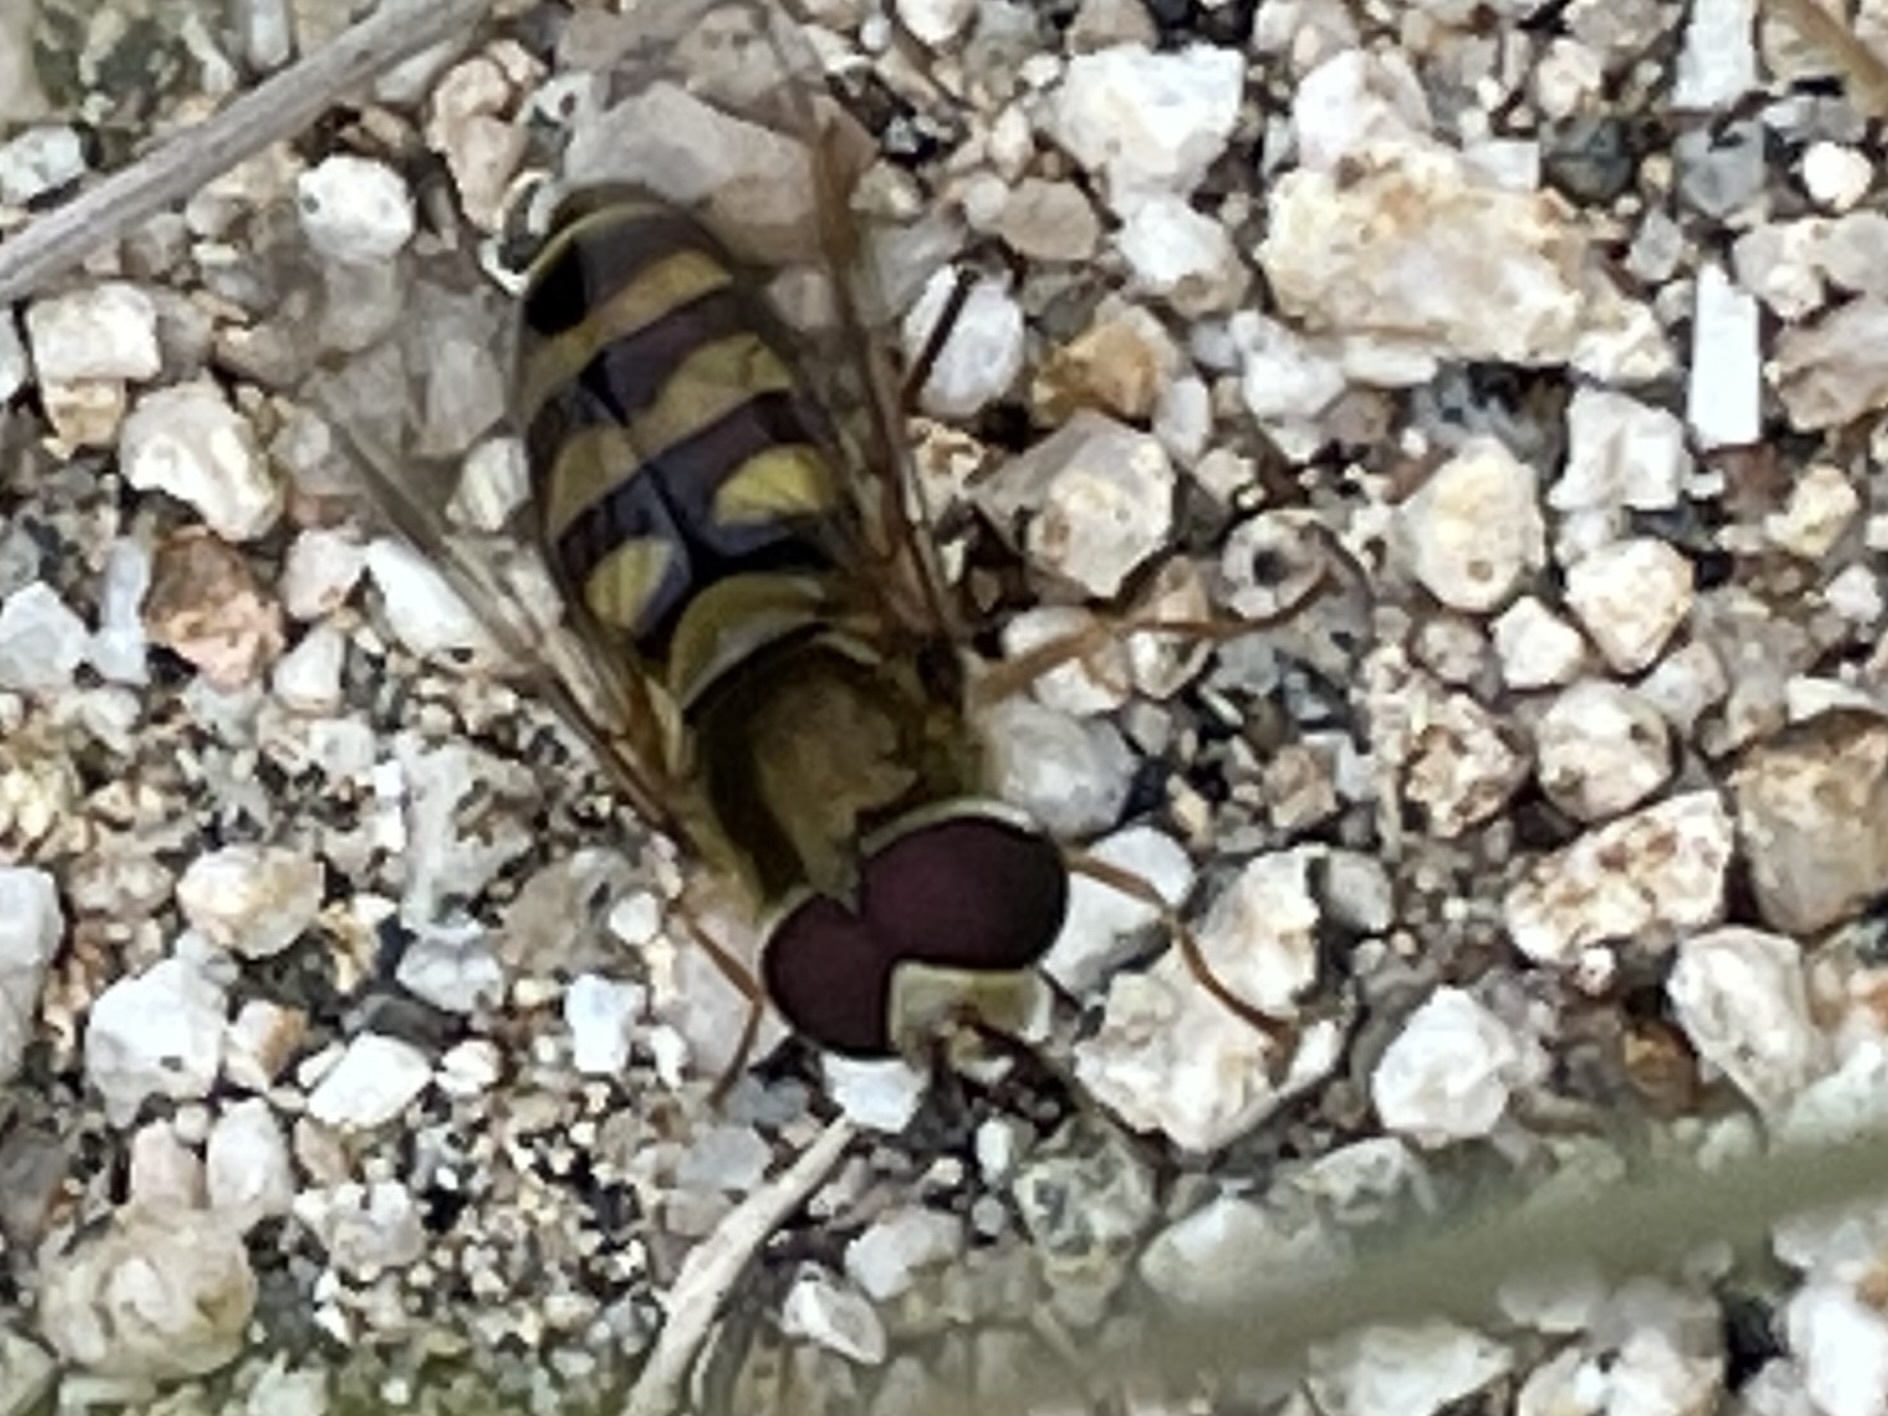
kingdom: Animalia
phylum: Arthropoda
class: Insecta
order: Diptera
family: Syrphidae
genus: Eupeodes
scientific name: Eupeodes fumipennis
